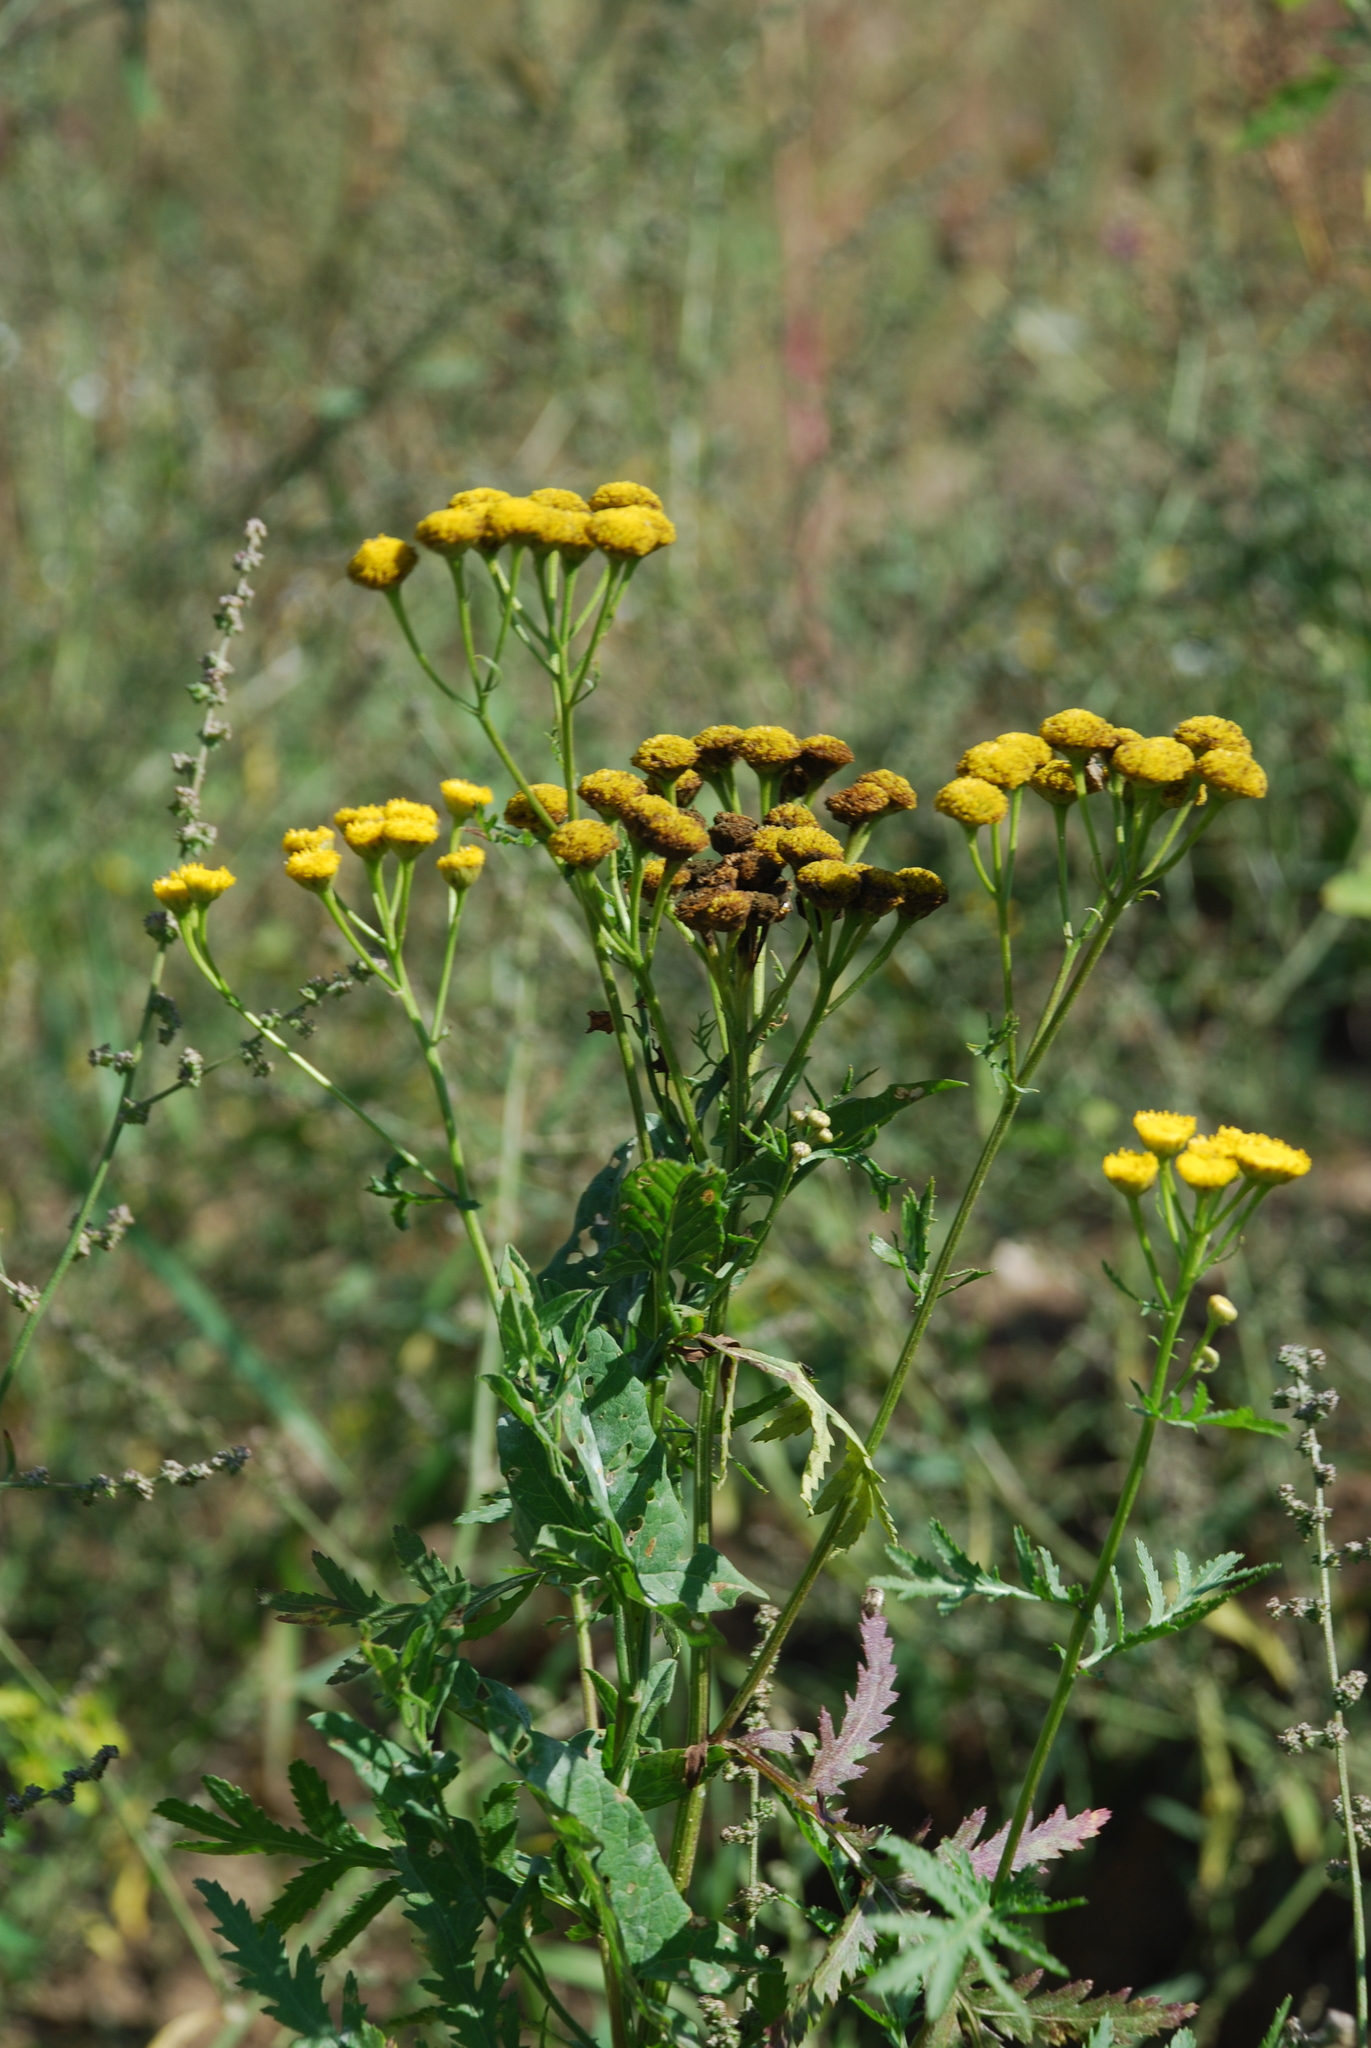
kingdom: Plantae
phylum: Tracheophyta
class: Magnoliopsida
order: Asterales
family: Asteraceae
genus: Tanacetum
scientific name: Tanacetum vulgare
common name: Common tansy
